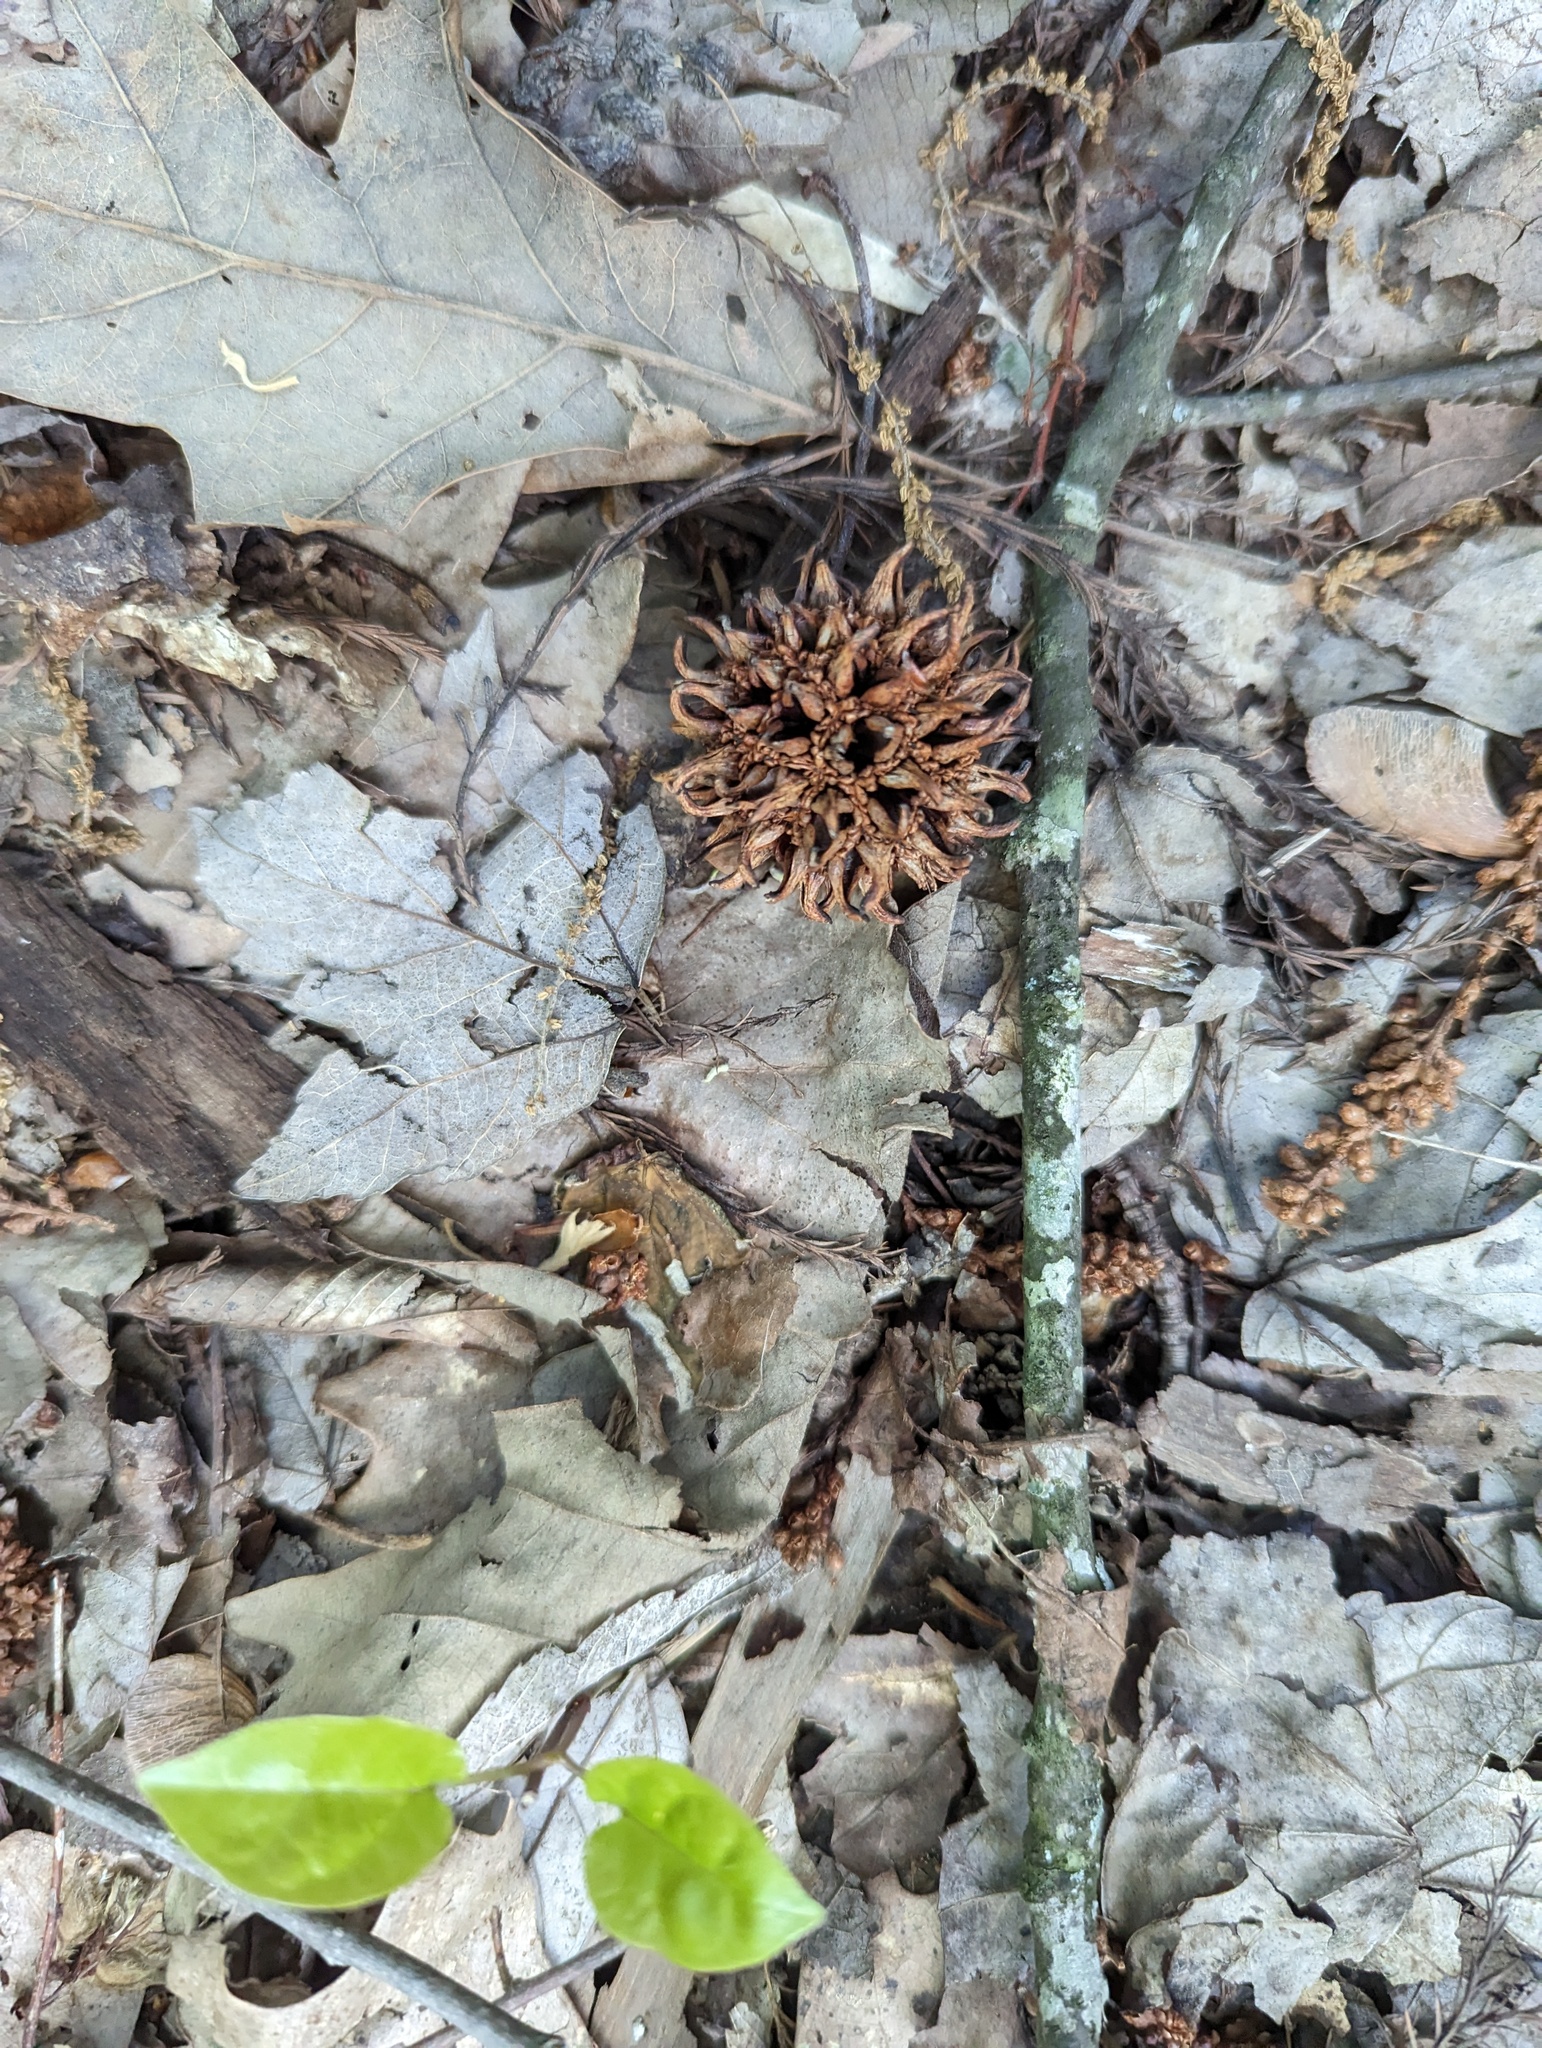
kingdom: Plantae
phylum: Tracheophyta
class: Magnoliopsida
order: Saxifragales
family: Altingiaceae
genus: Liquidambar
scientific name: Liquidambar styraciflua
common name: Sweet gum
